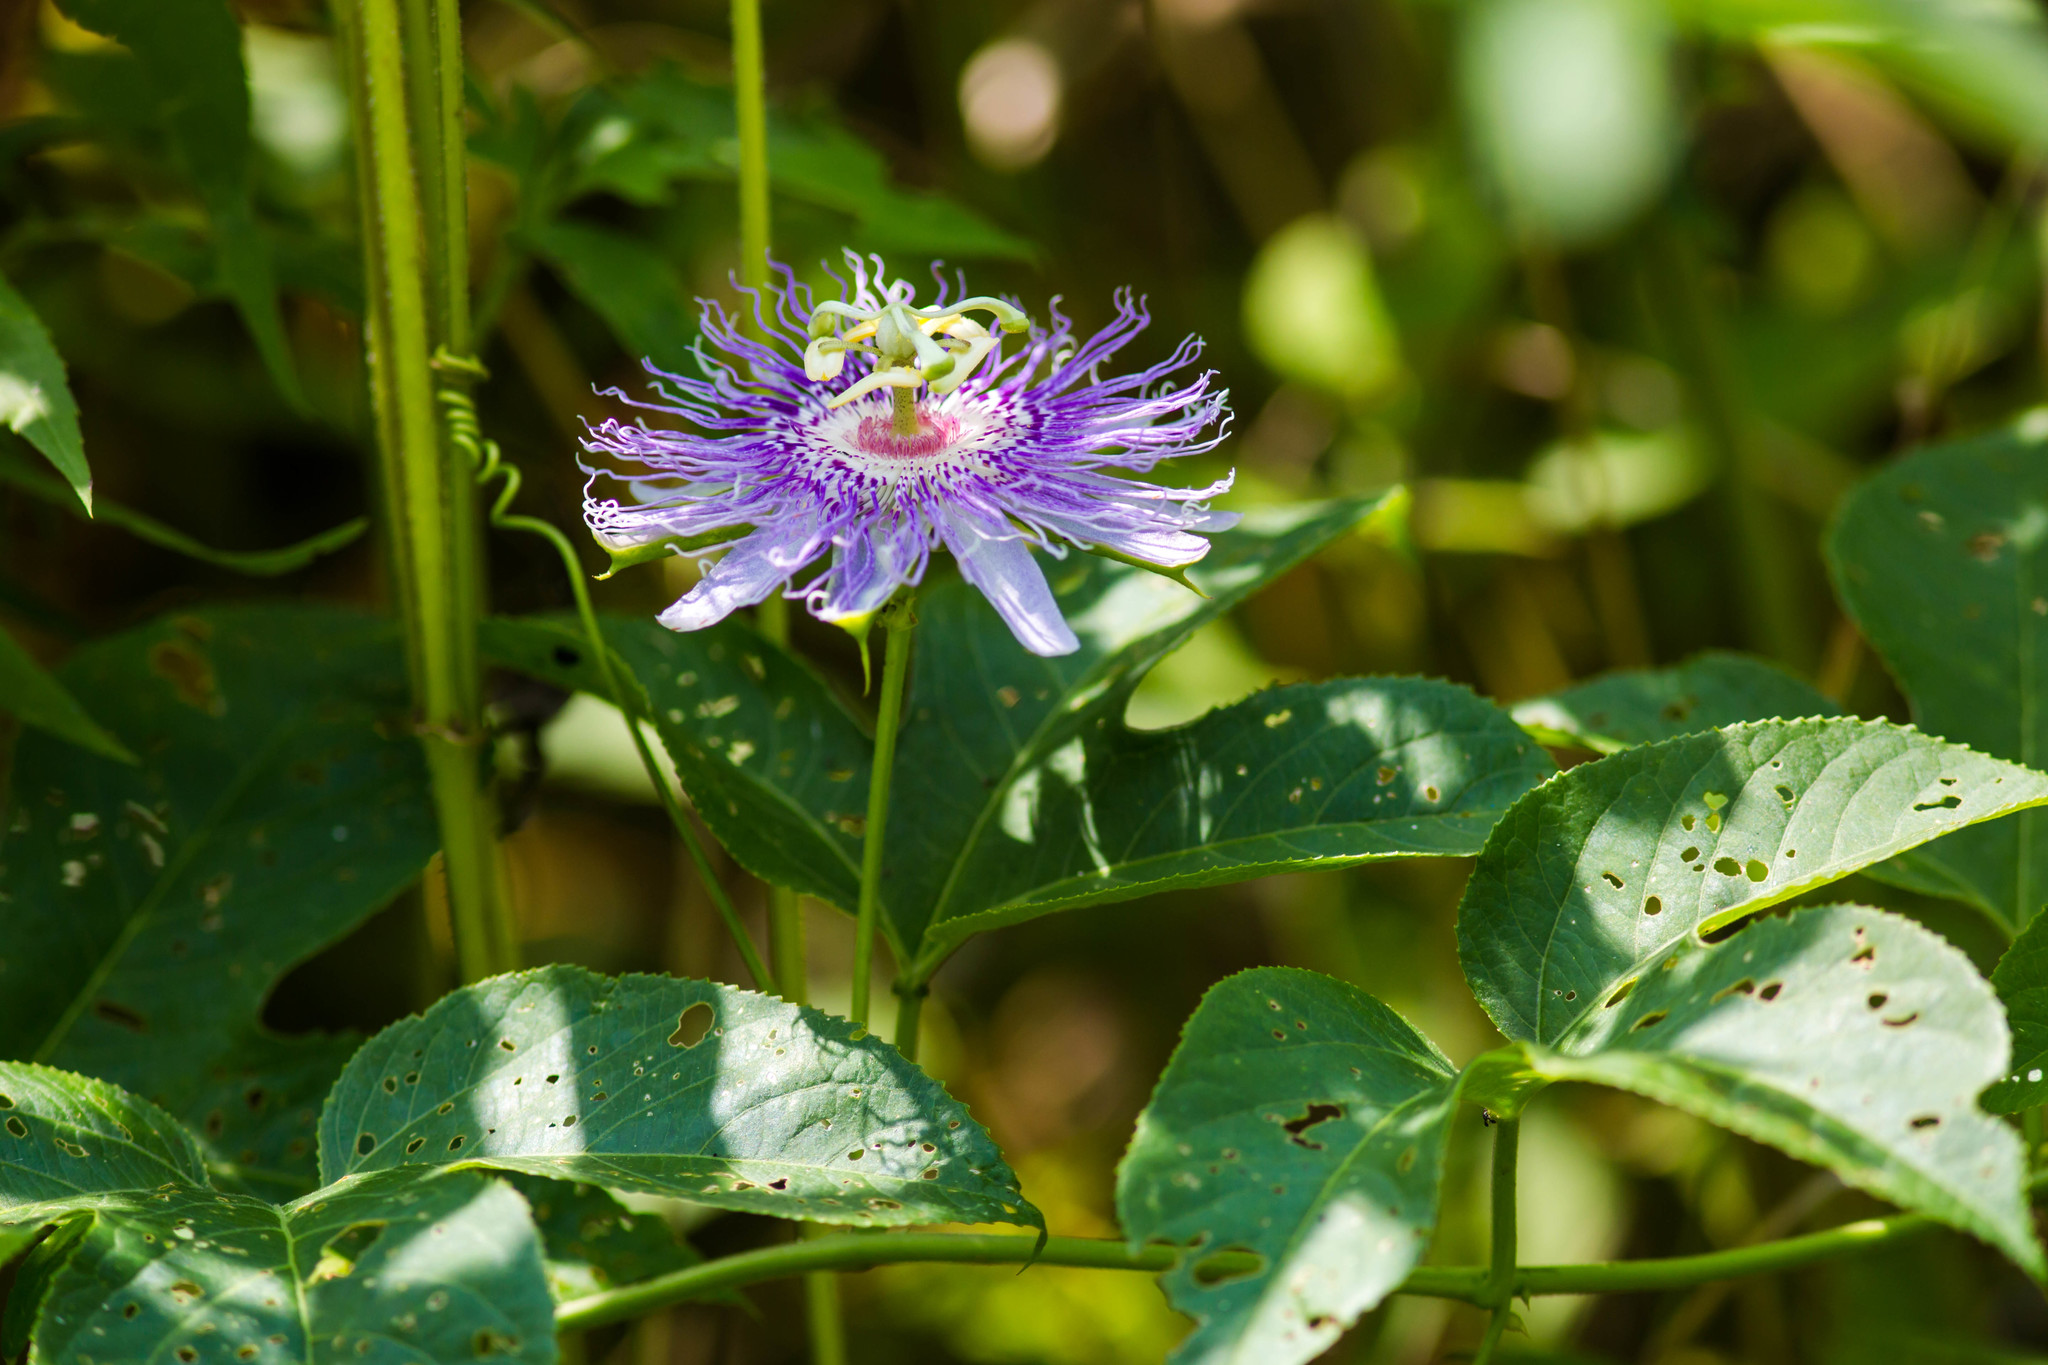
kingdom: Plantae
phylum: Tracheophyta
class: Magnoliopsida
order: Malpighiales
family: Passifloraceae
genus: Passiflora
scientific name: Passiflora incarnata
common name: Apricot-vine
